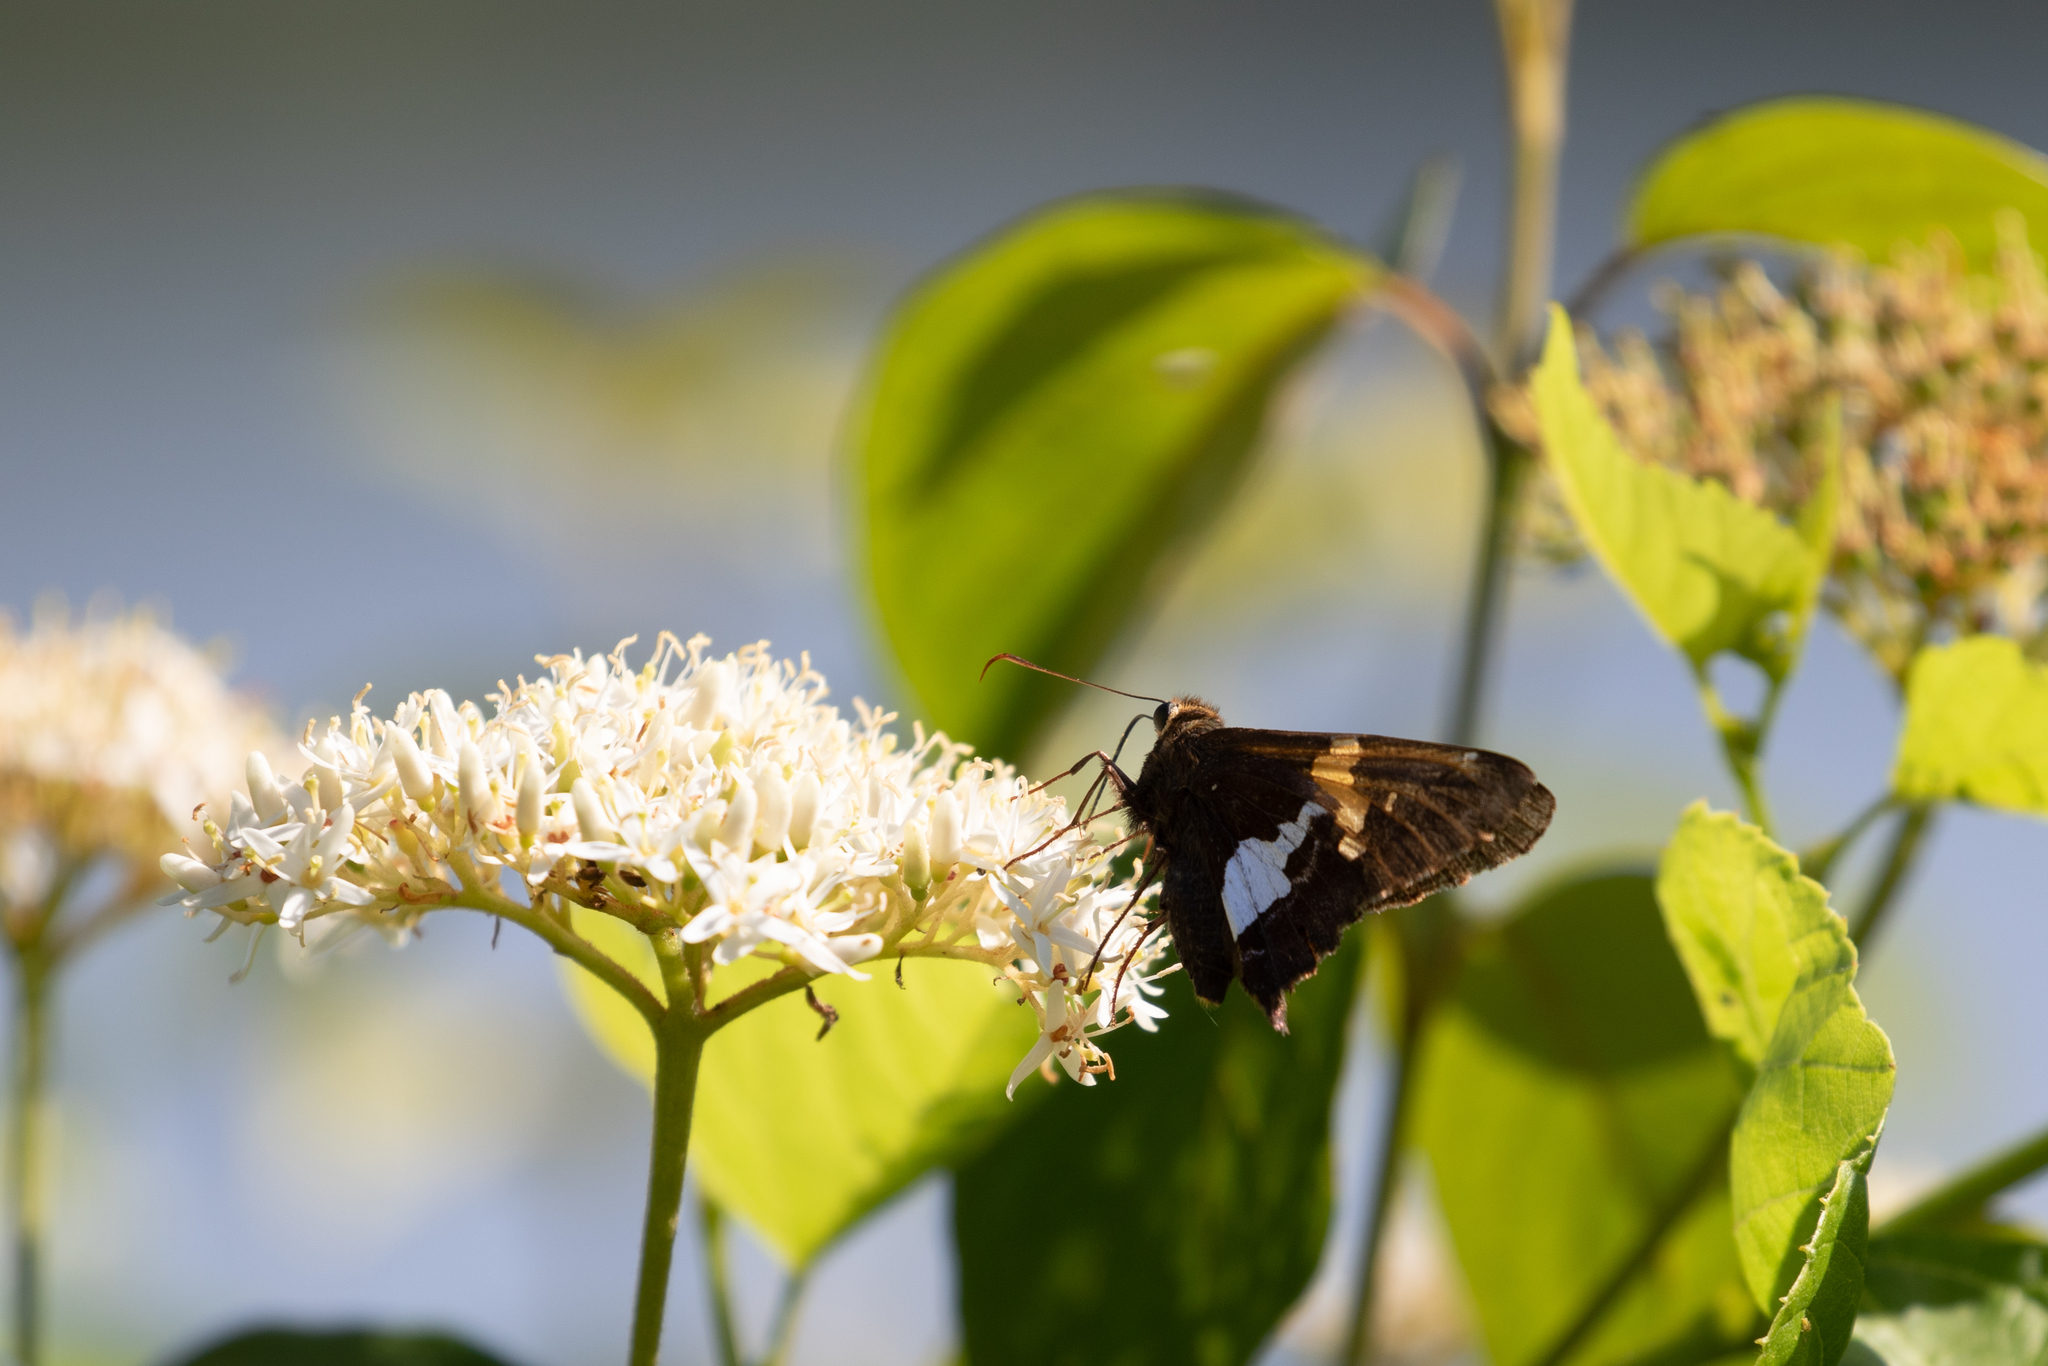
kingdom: Animalia
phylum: Arthropoda
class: Insecta
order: Lepidoptera
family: Hesperiidae
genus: Epargyreus
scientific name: Epargyreus clarus
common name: Silver-spotted skipper
